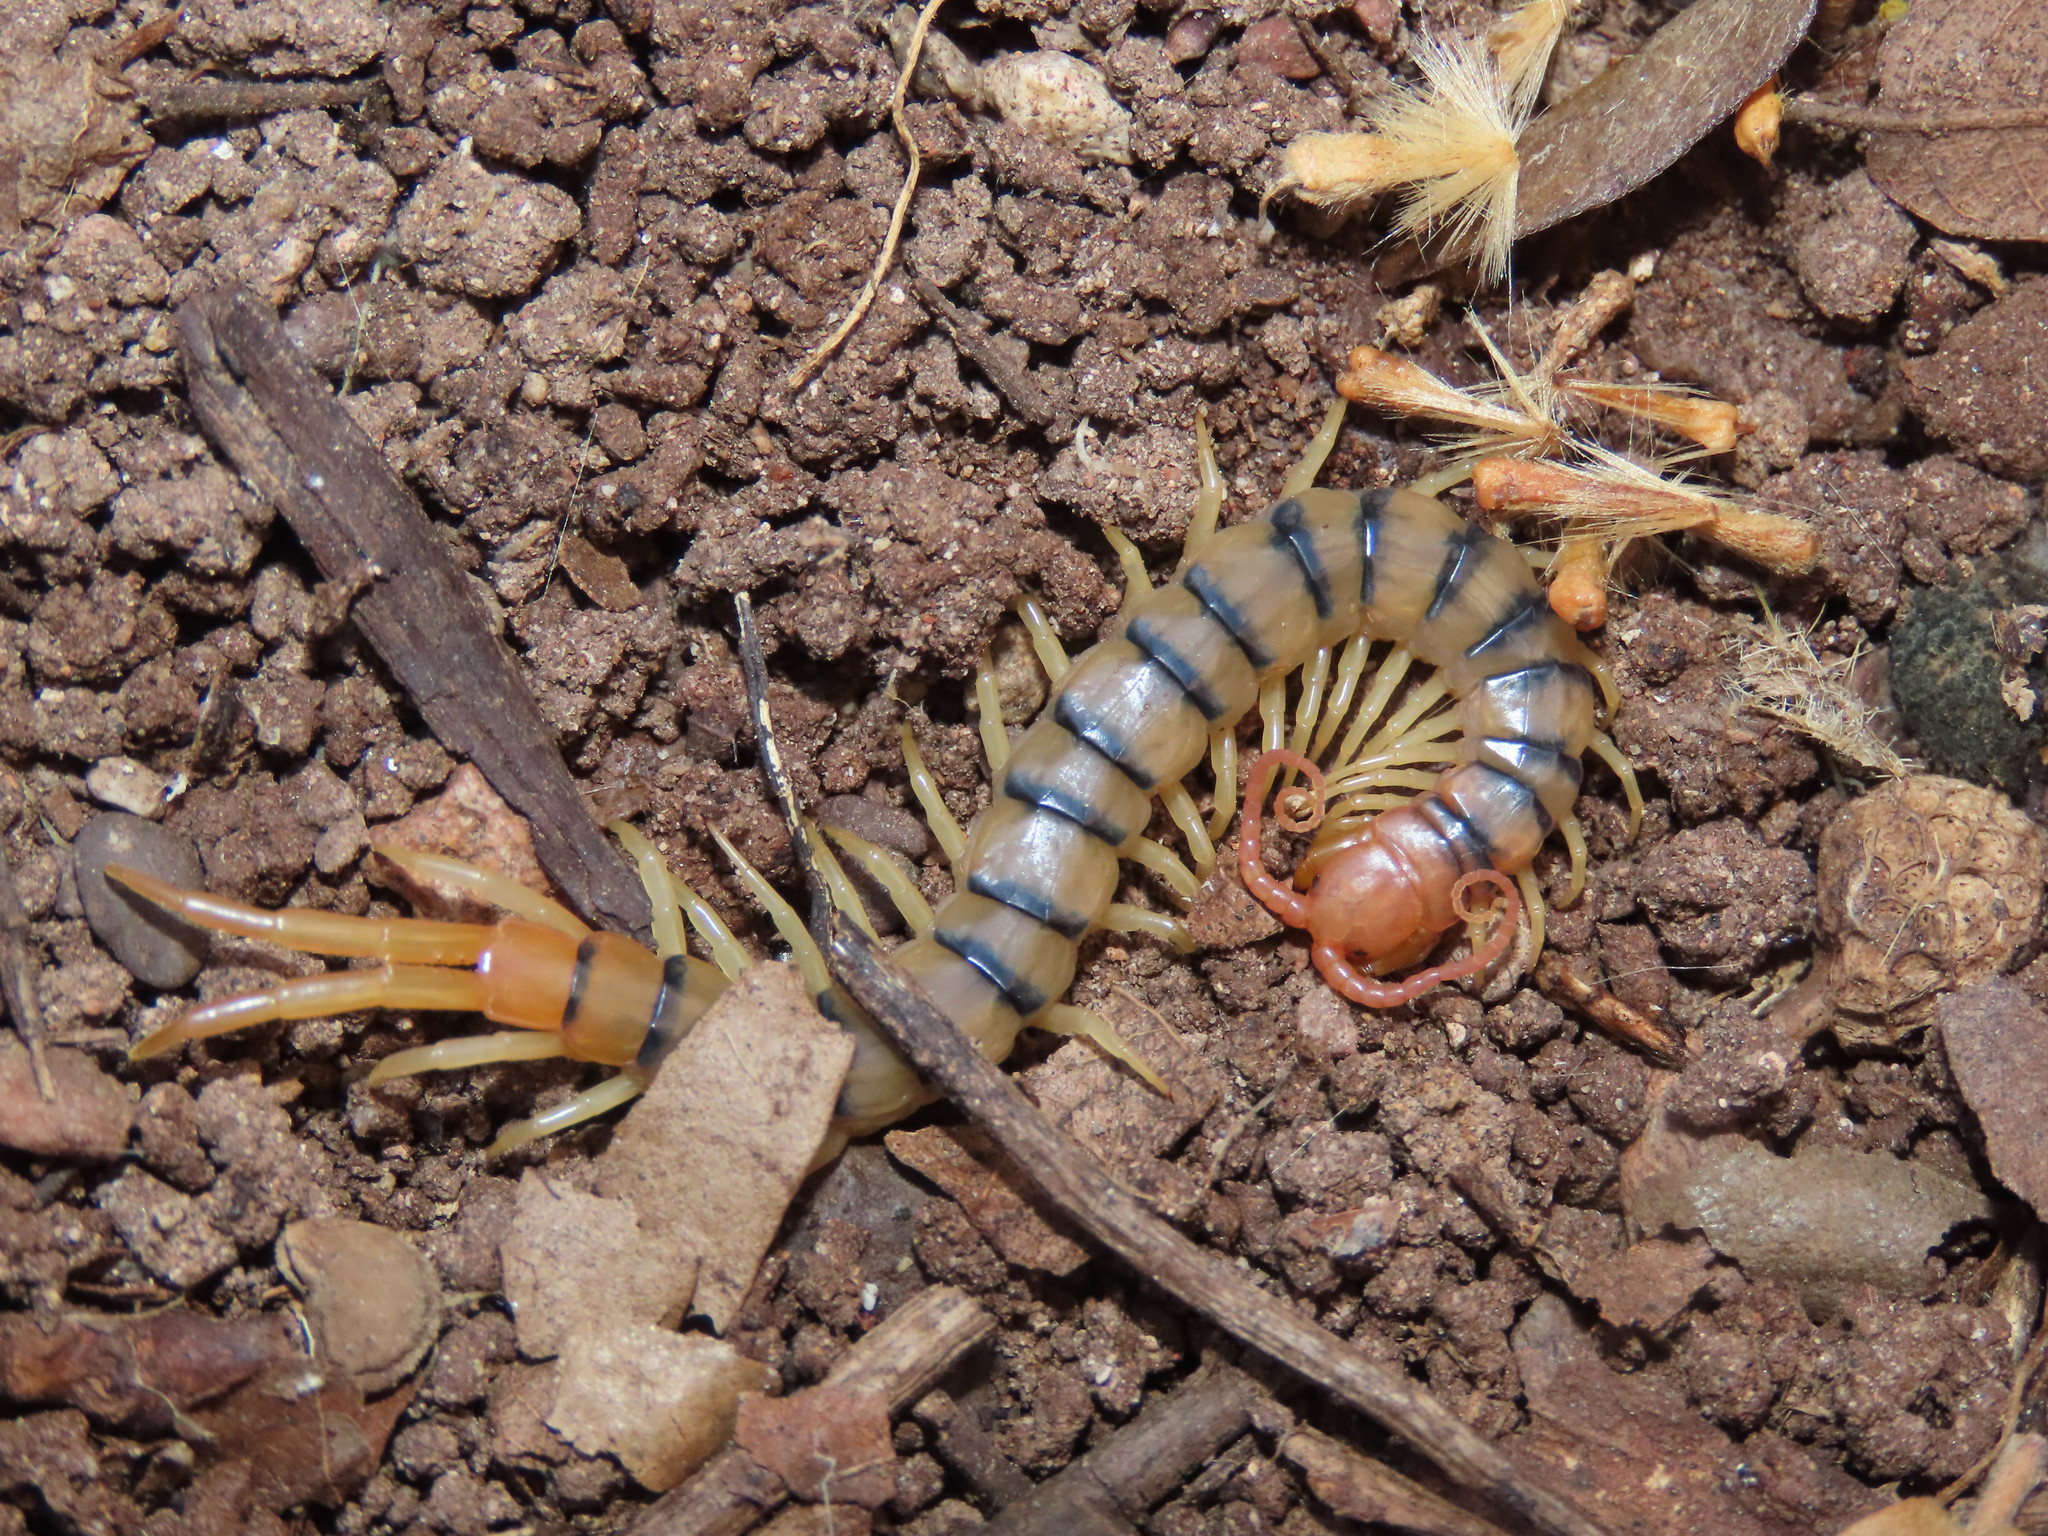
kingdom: Animalia
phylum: Arthropoda
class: Chilopoda
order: Scolopendromorpha
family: Scolopendridae
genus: Scolopendra
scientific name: Scolopendra polymorpha
